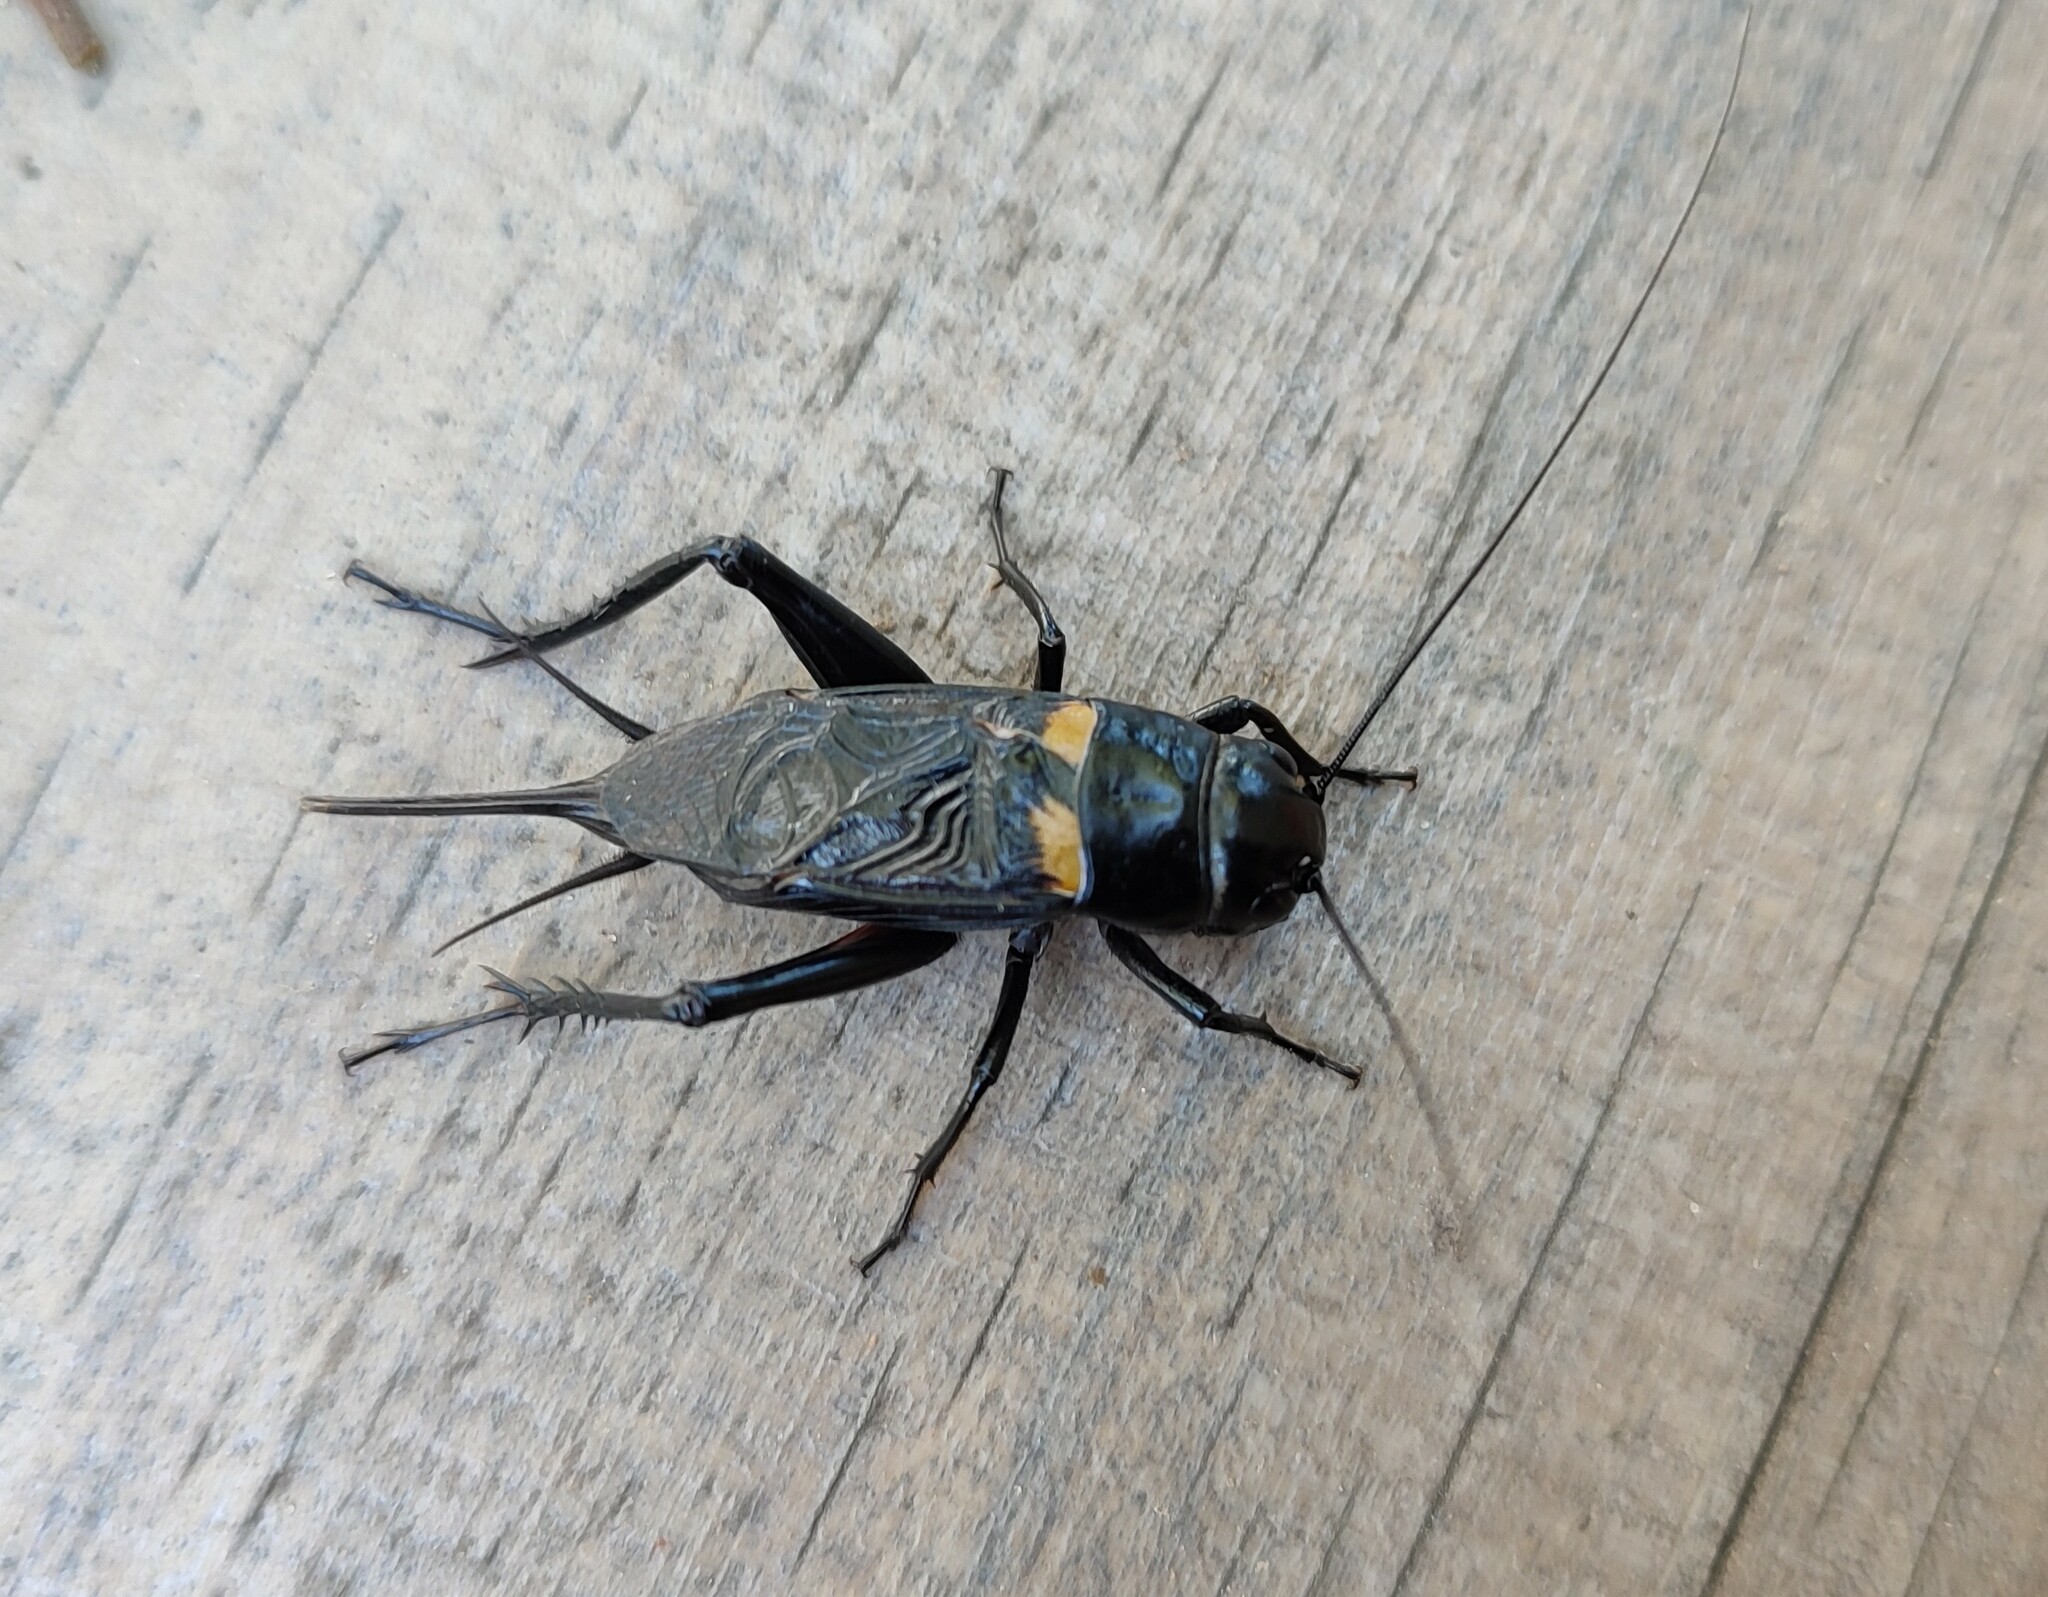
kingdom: Animalia
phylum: Arthropoda
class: Insecta
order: Orthoptera
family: Gryllidae
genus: Gryllus
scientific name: Gryllus bimaculatus
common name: Two-spotted cricket
